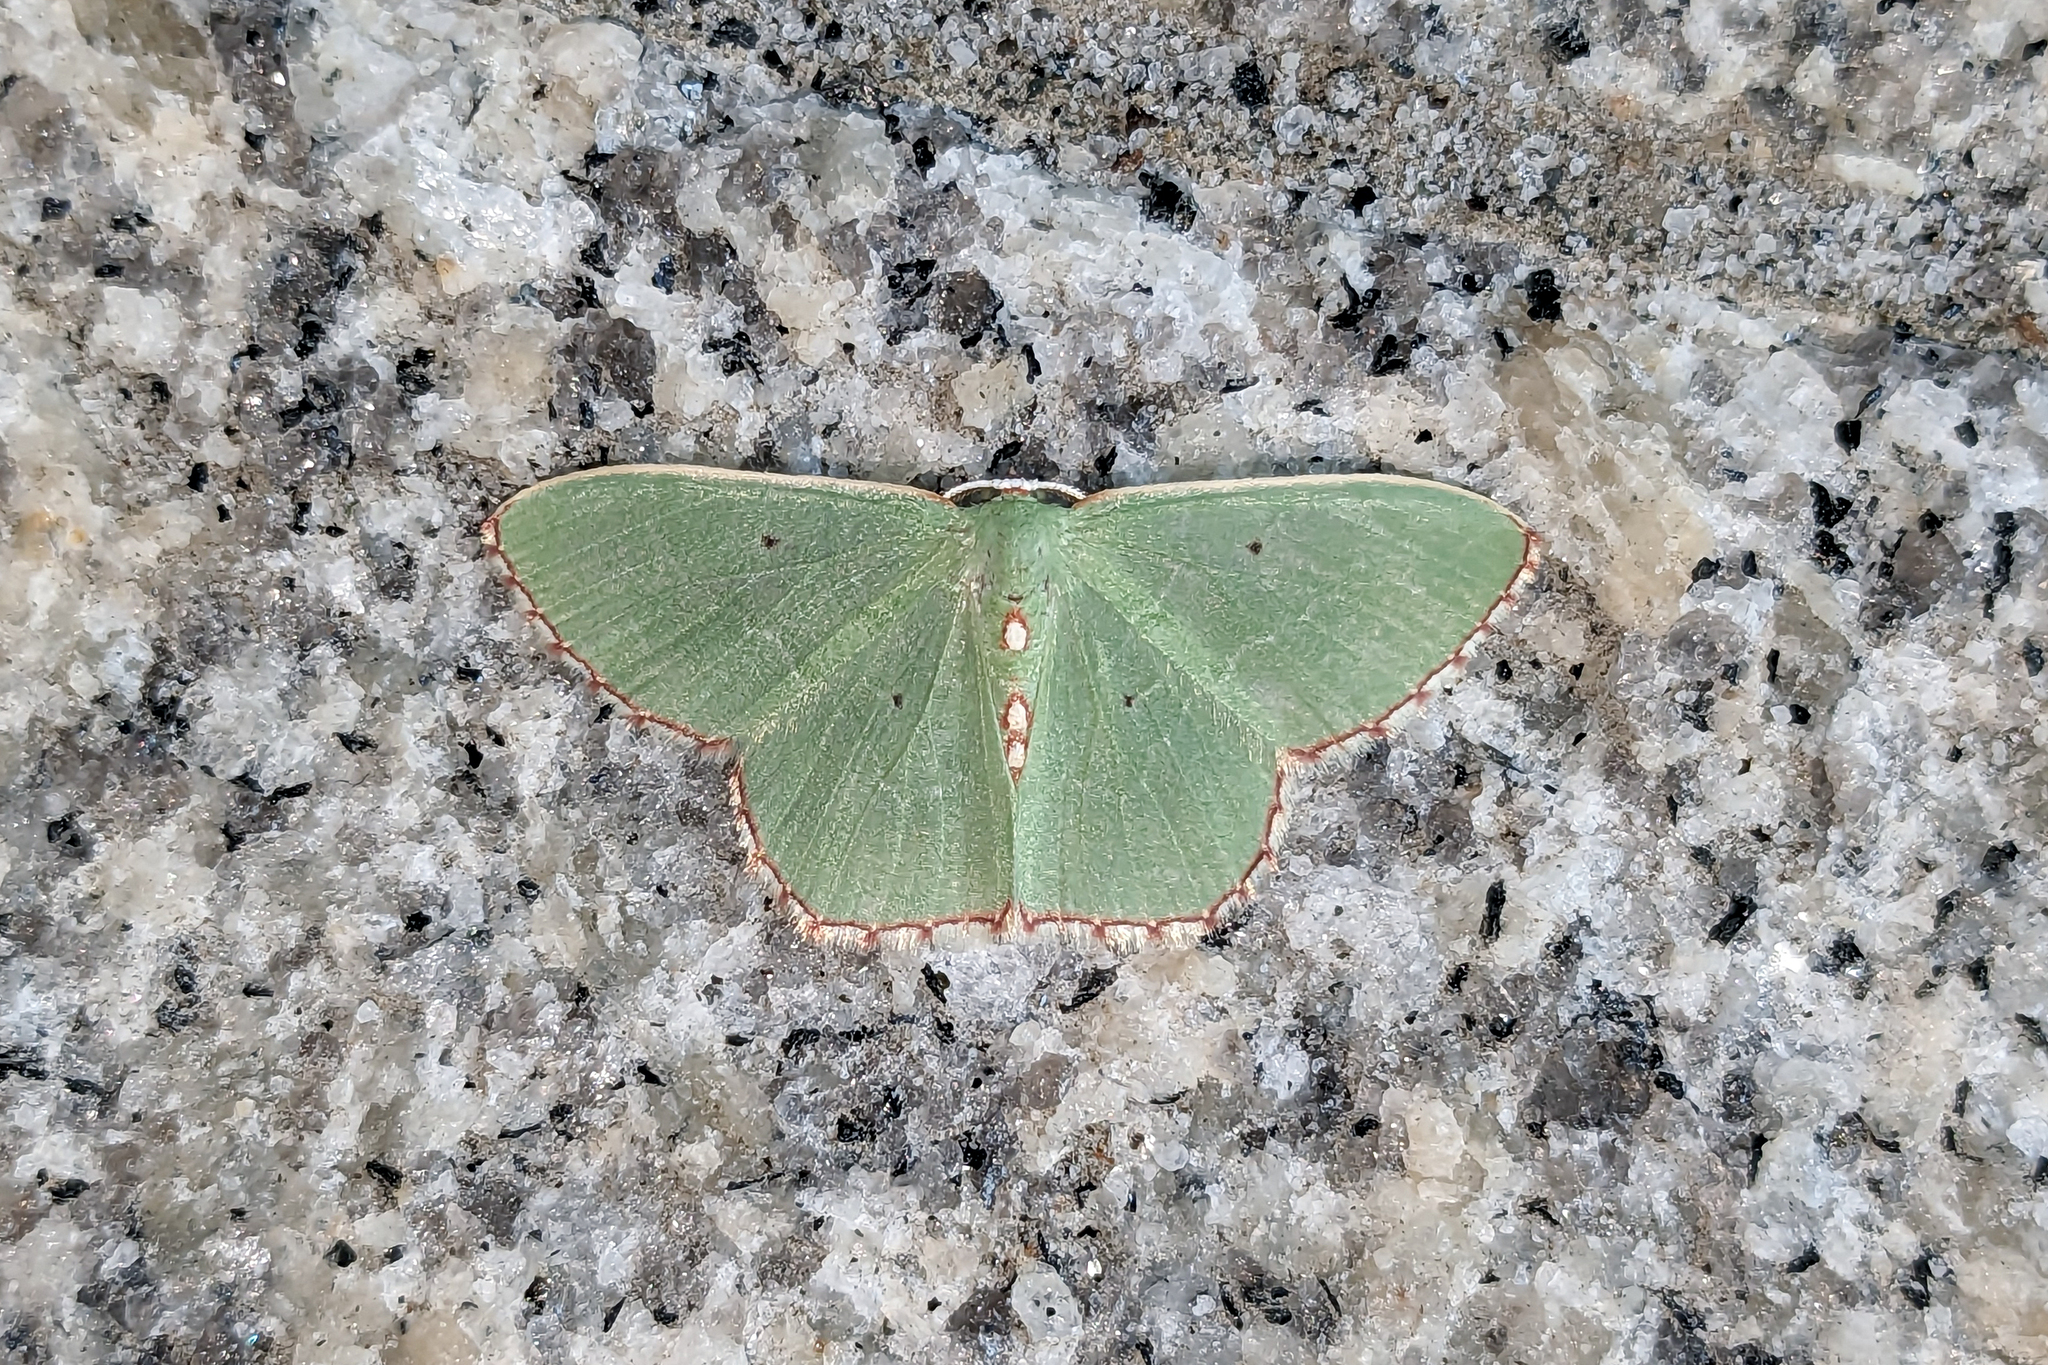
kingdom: Animalia
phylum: Arthropoda
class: Insecta
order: Lepidoptera
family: Geometridae
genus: Nemoria
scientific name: Nemoria lixaria
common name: Red-bordered emerald
